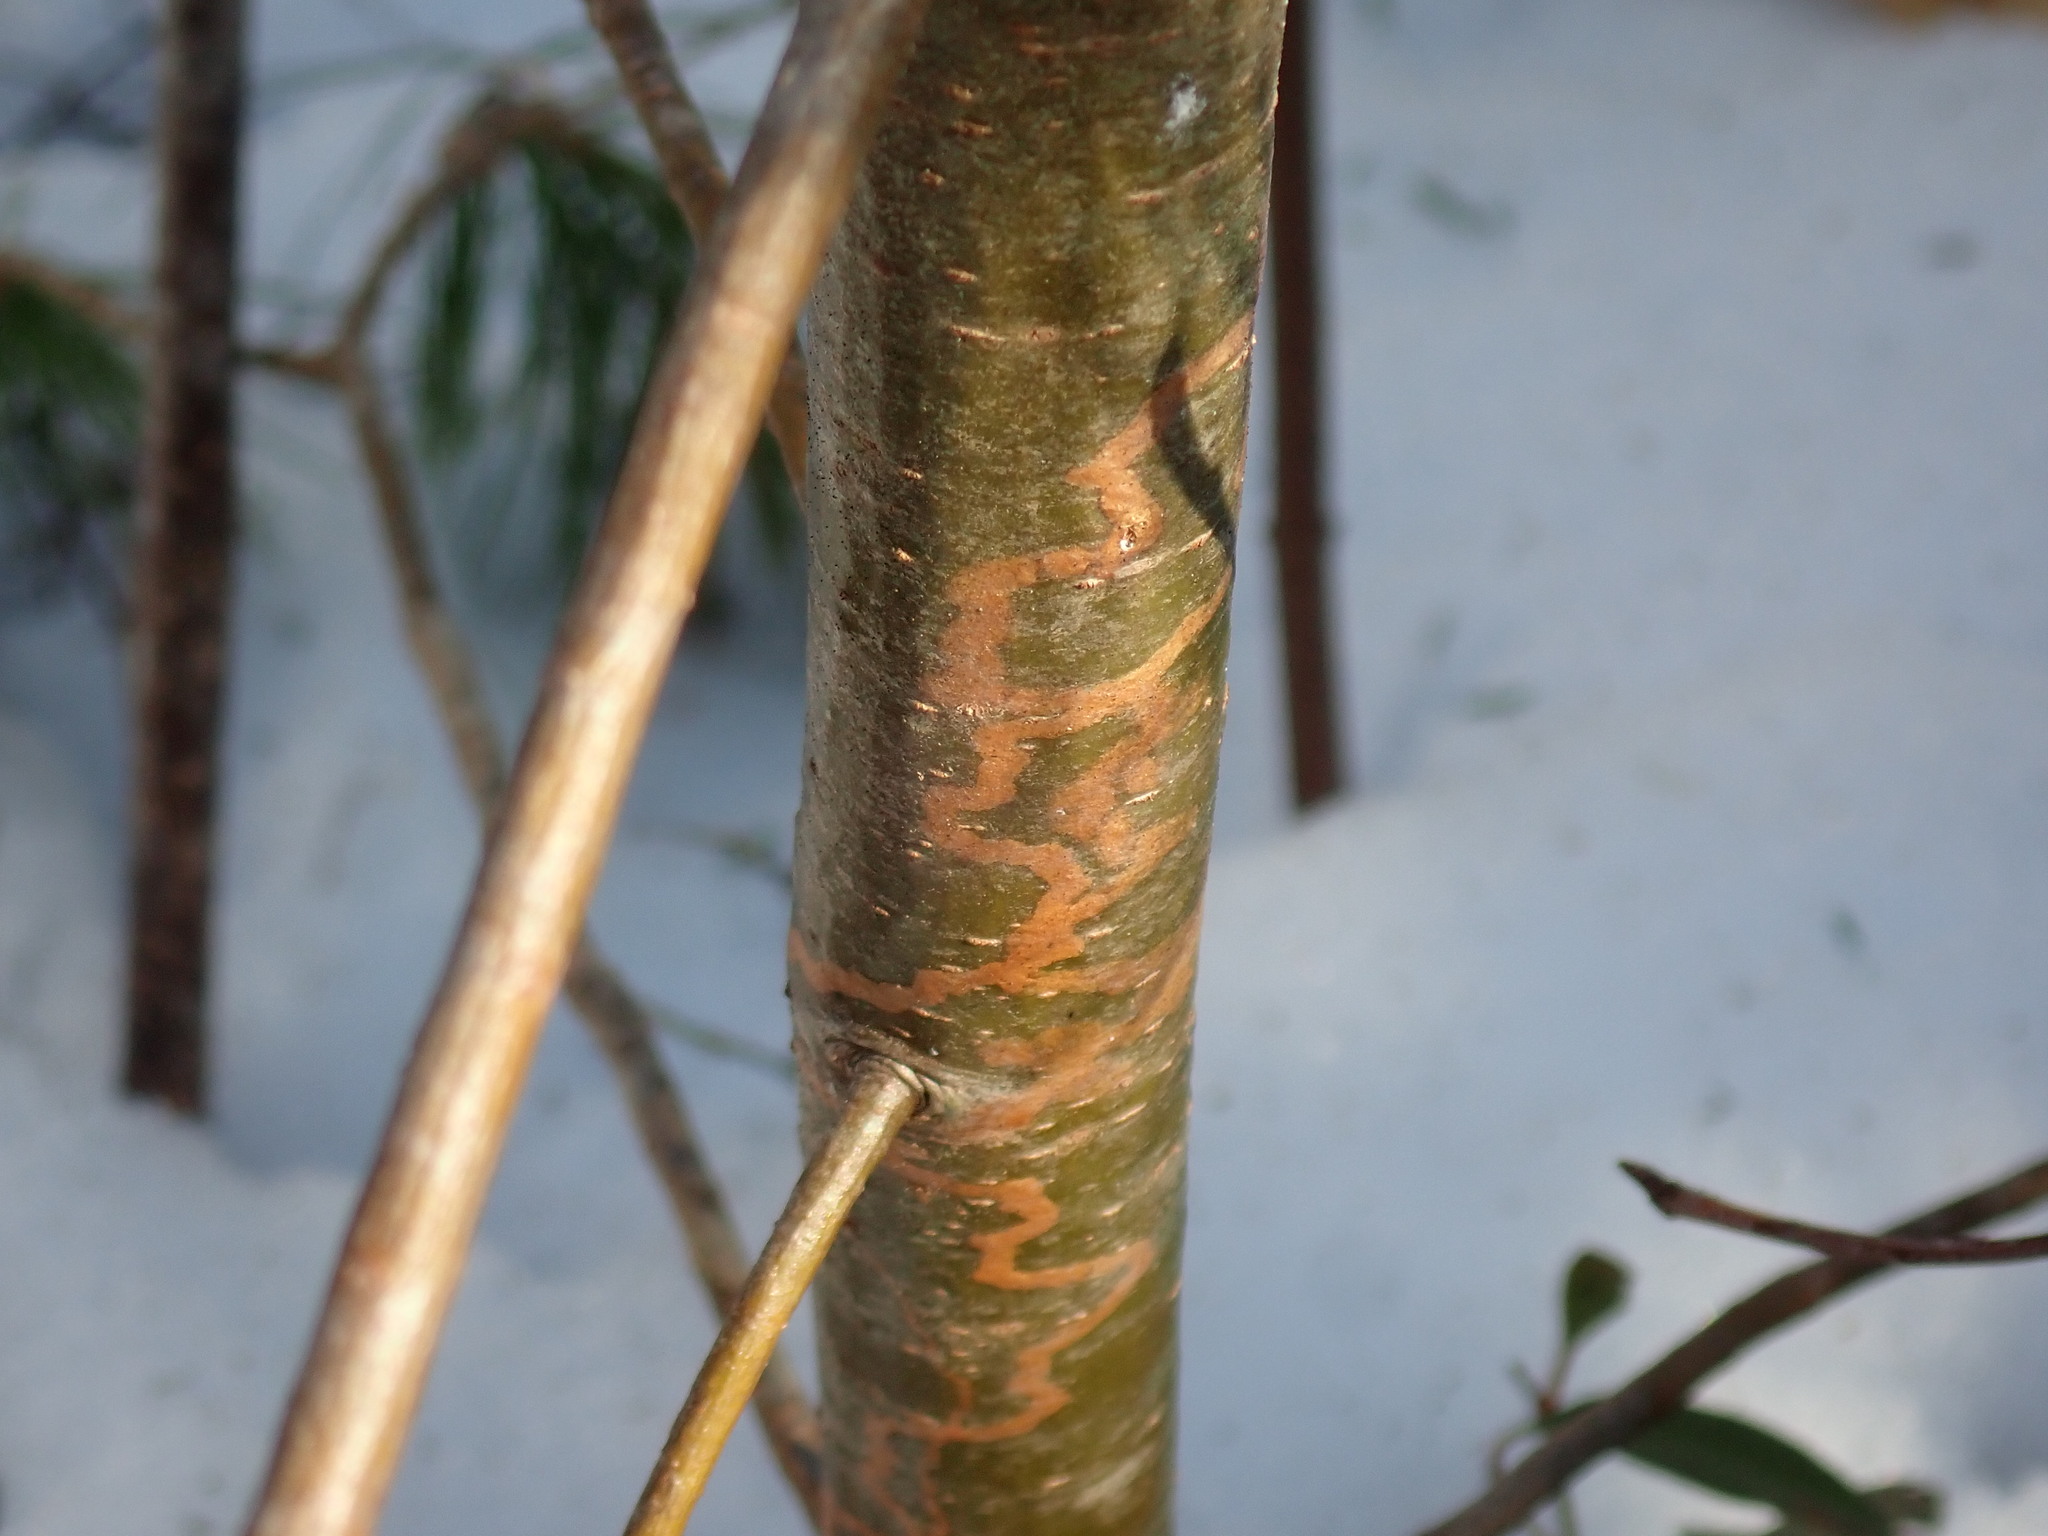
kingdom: Animalia
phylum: Arthropoda
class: Insecta
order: Lepidoptera
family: Gracillariidae
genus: Marmara
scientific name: Marmara fasciella
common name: White pine barkminer moth
